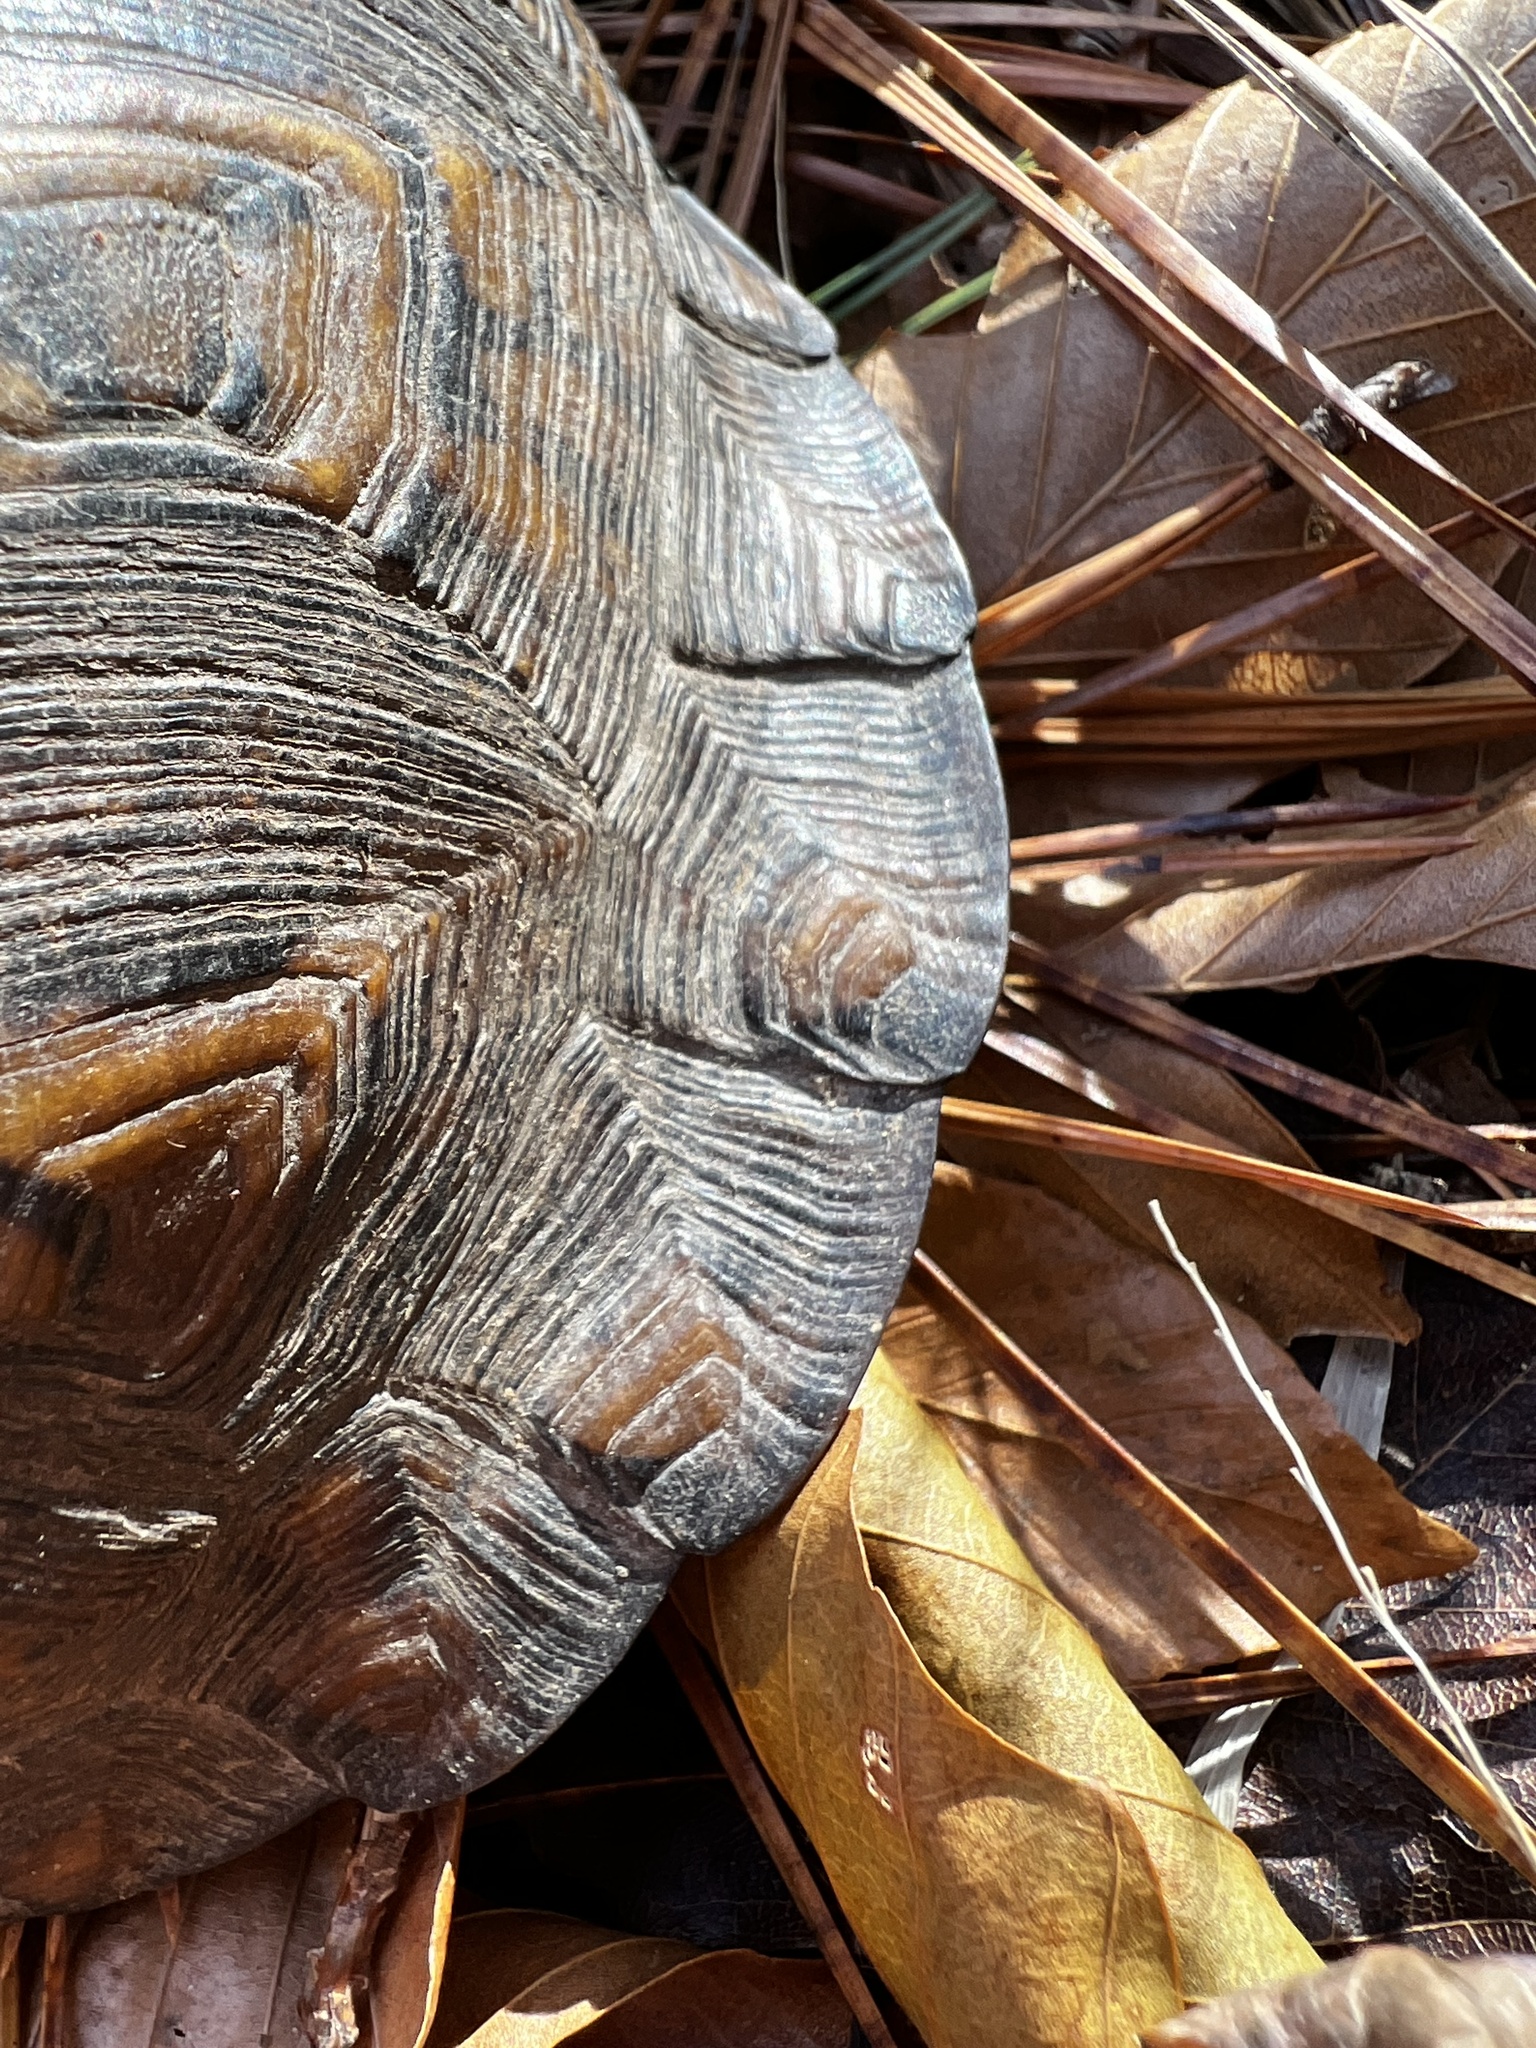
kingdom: Animalia
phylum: Chordata
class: Testudines
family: Emydidae
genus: Terrapene
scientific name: Terrapene carolina
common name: Common box turtle
